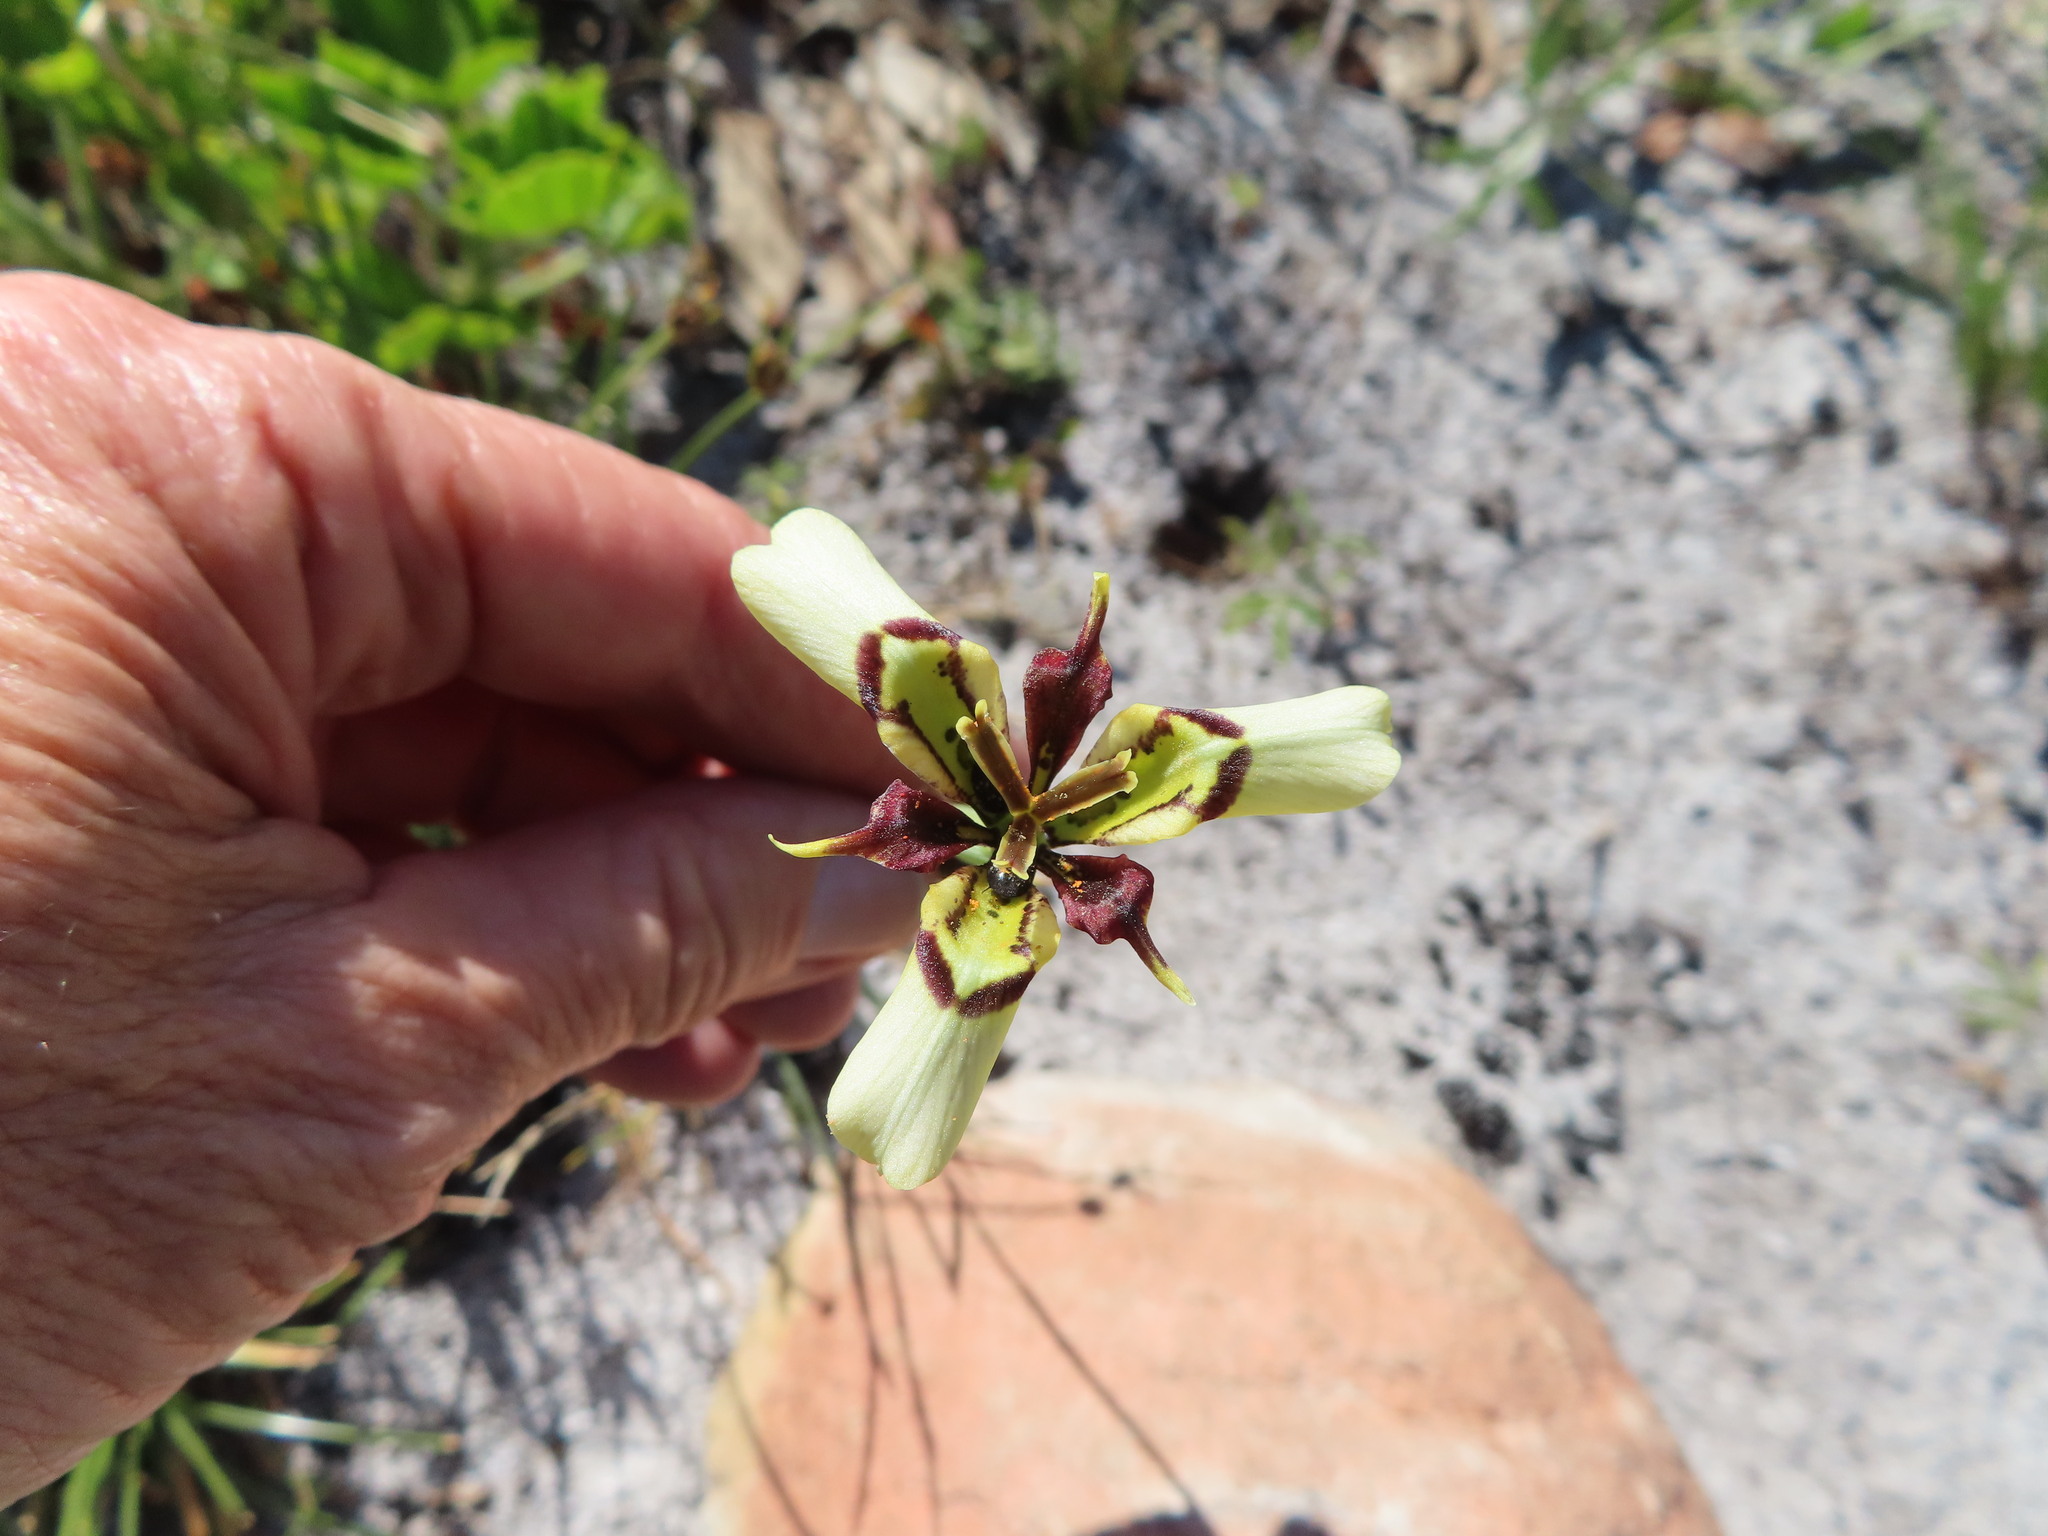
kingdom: Plantae
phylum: Tracheophyta
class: Liliopsida
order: Asparagales
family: Iridaceae
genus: Moraea
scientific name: Moraea lurida
